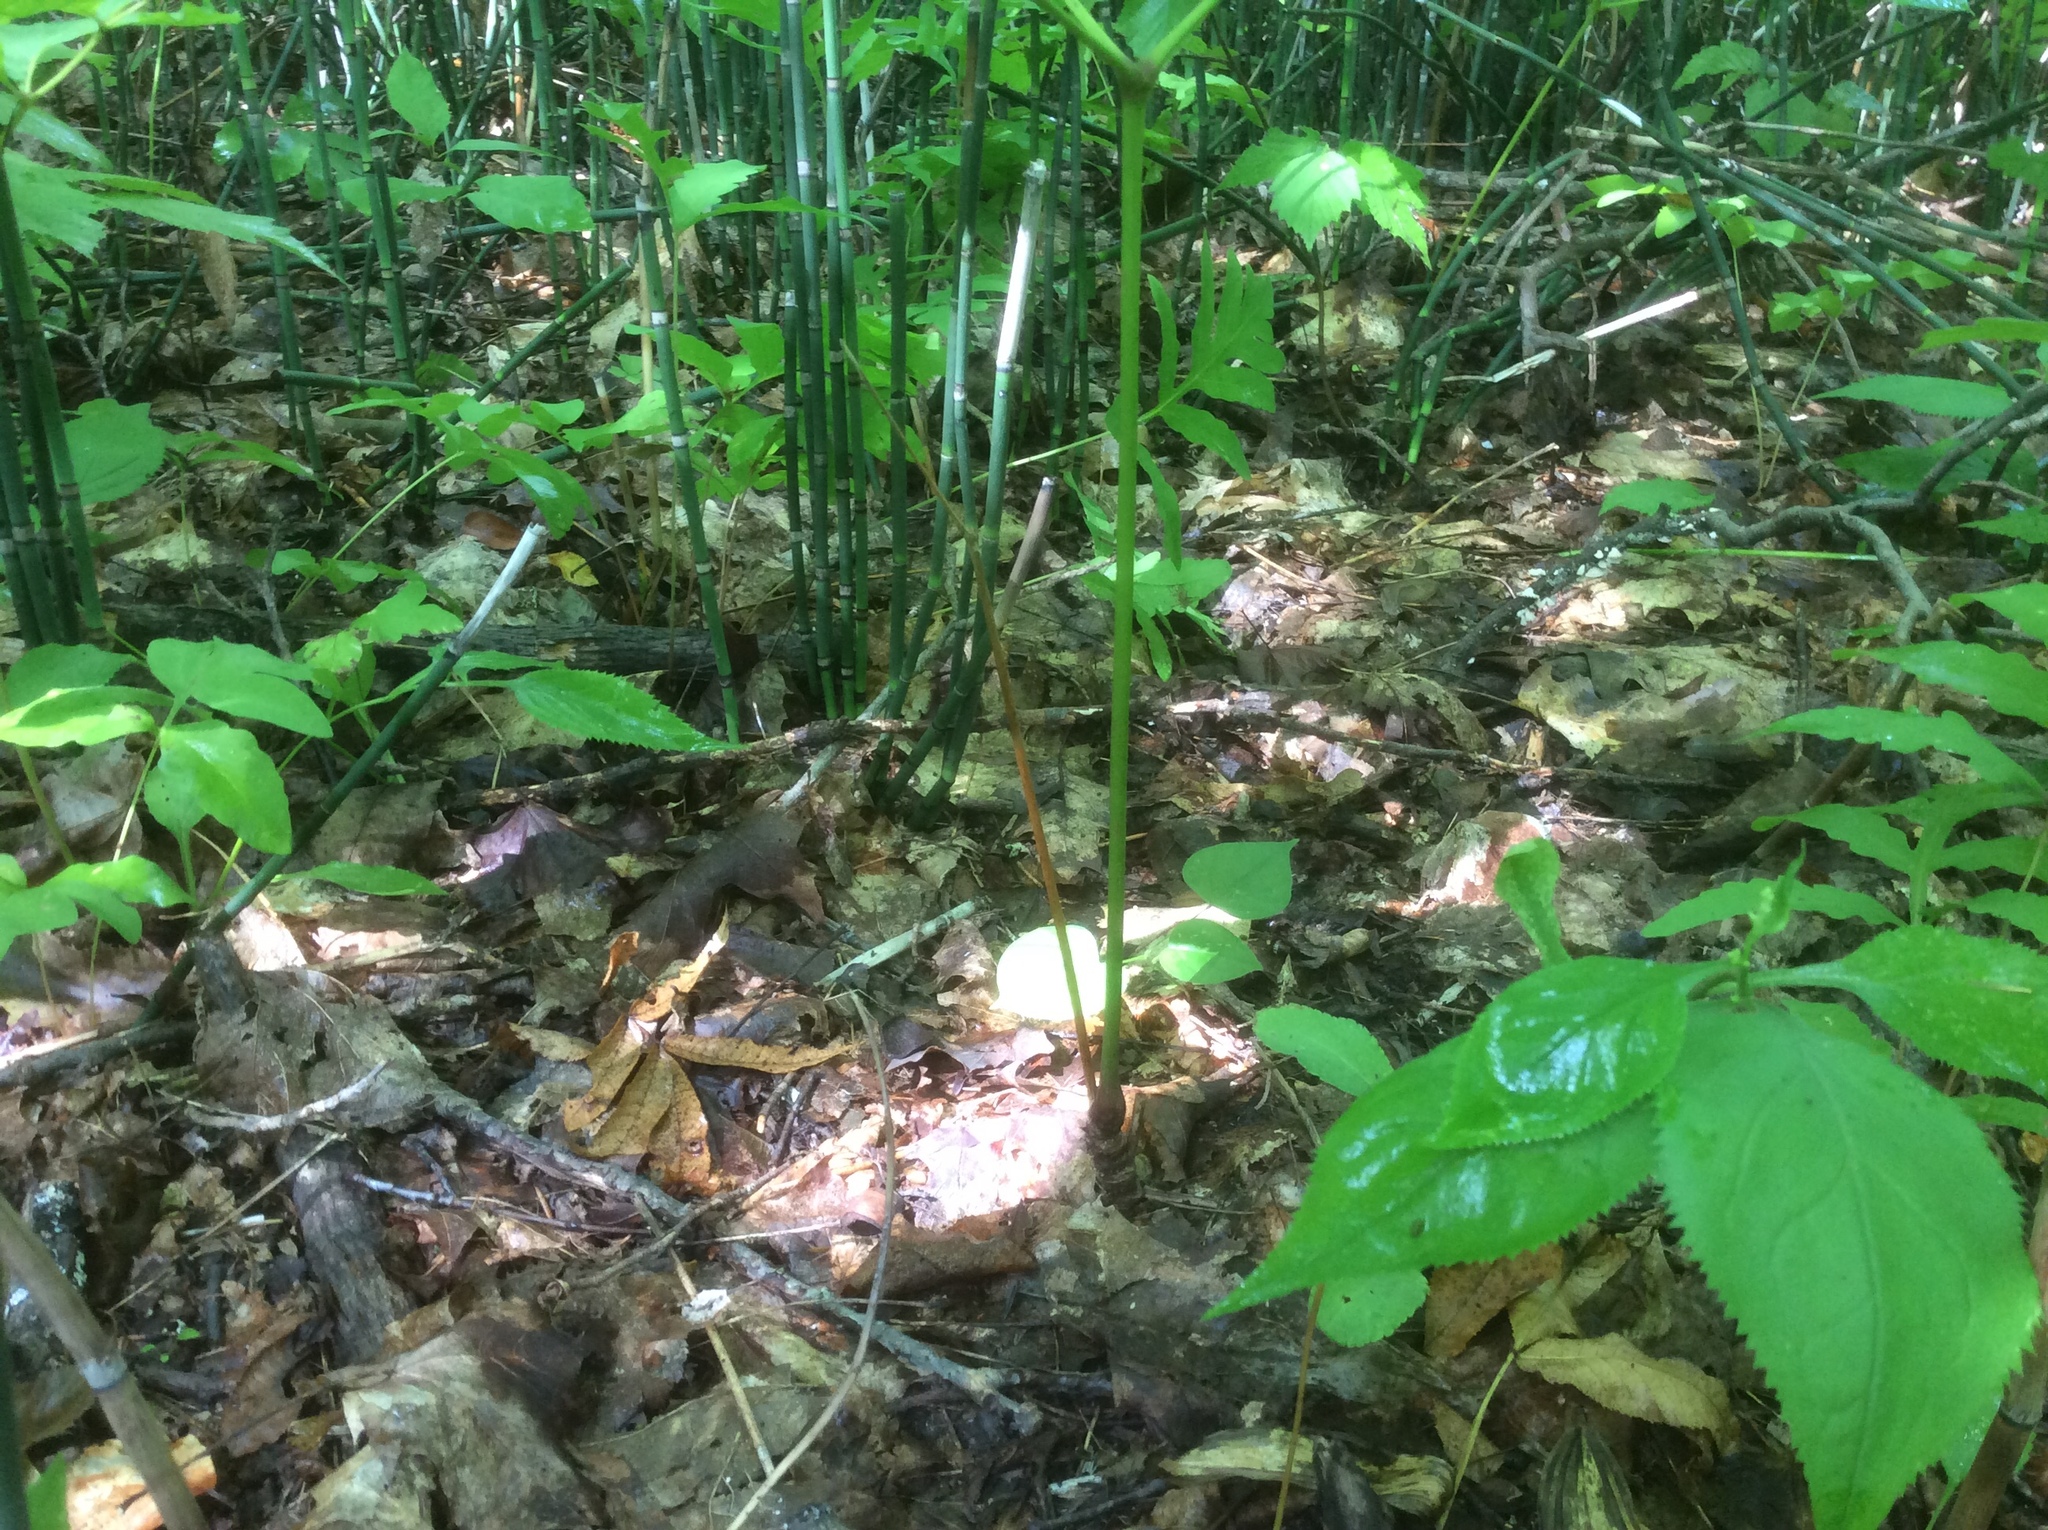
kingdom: Plantae
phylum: Tracheophyta
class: Magnoliopsida
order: Apiales
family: Araliaceae
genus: Aralia
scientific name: Aralia nudicaulis
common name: Wild sarsaparilla
